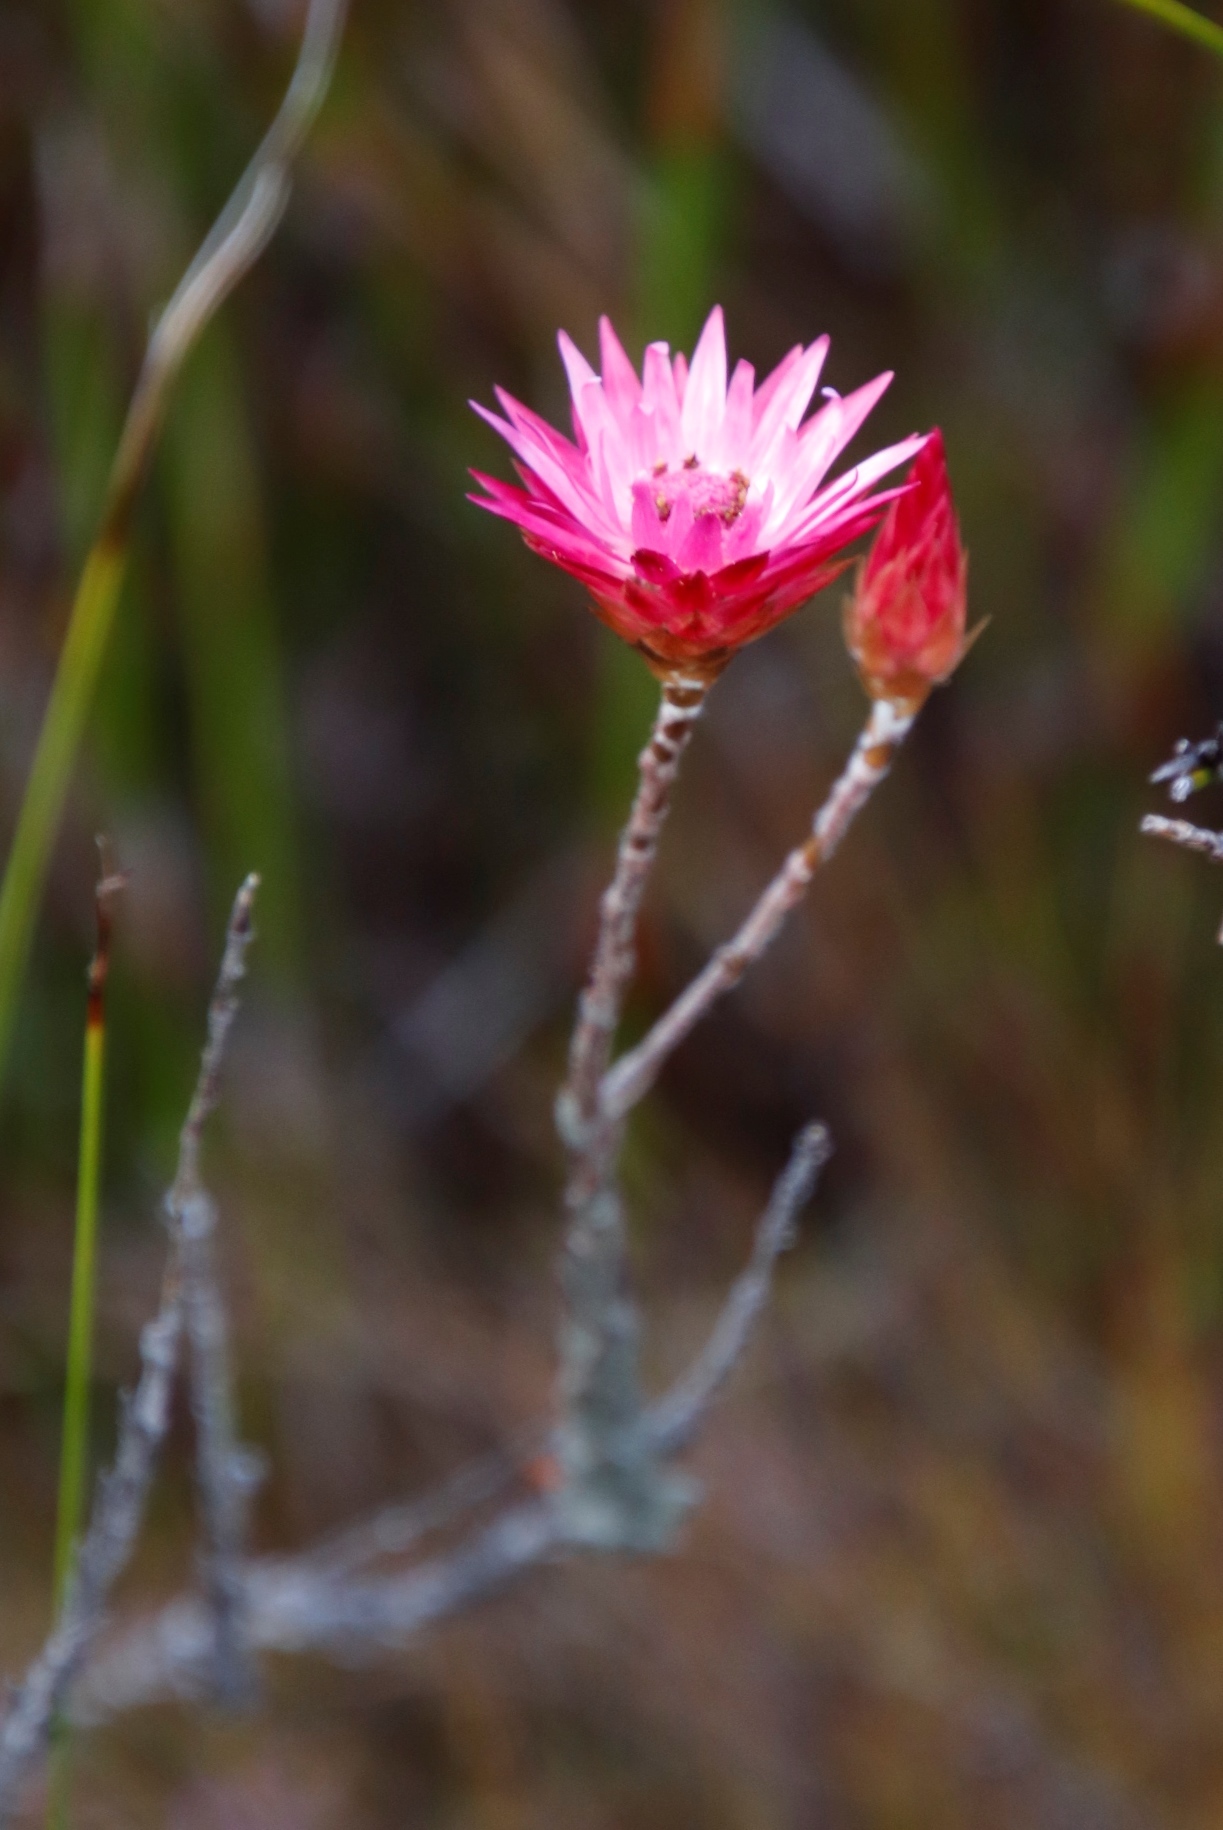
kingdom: Plantae
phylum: Tracheophyta
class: Magnoliopsida
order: Asterales
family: Asteraceae
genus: Syncarpha
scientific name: Syncarpha canescens
